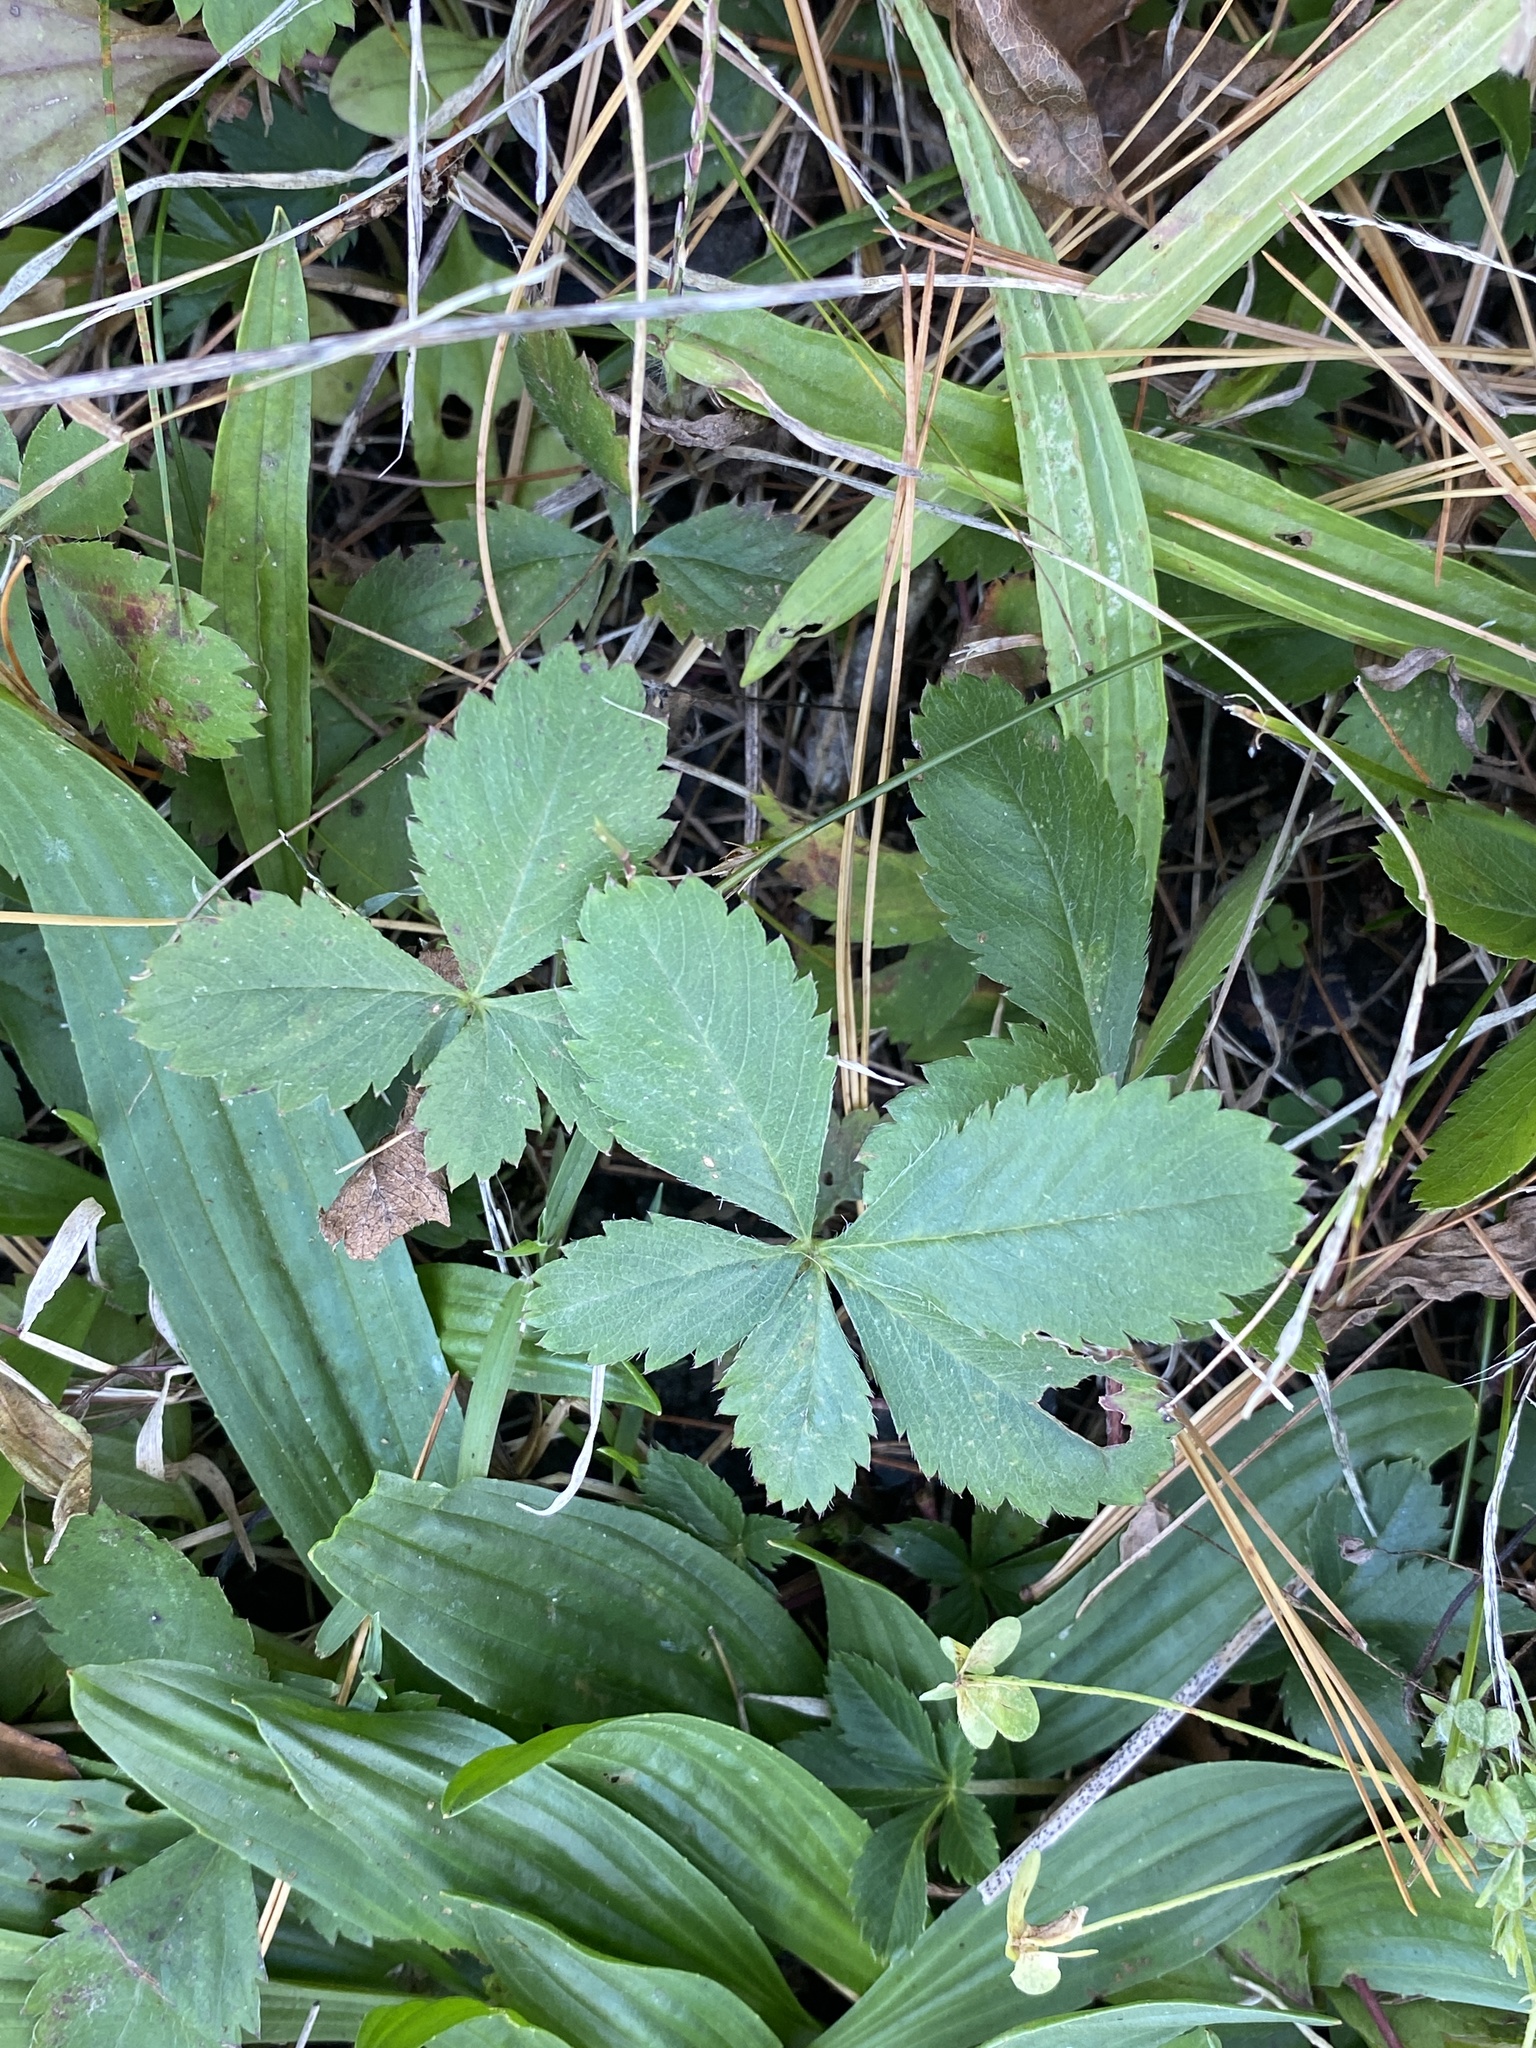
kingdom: Plantae
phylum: Tracheophyta
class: Magnoliopsida
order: Rosales
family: Rosaceae
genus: Potentilla
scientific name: Potentilla canadensis
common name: Canada cinquefoil
